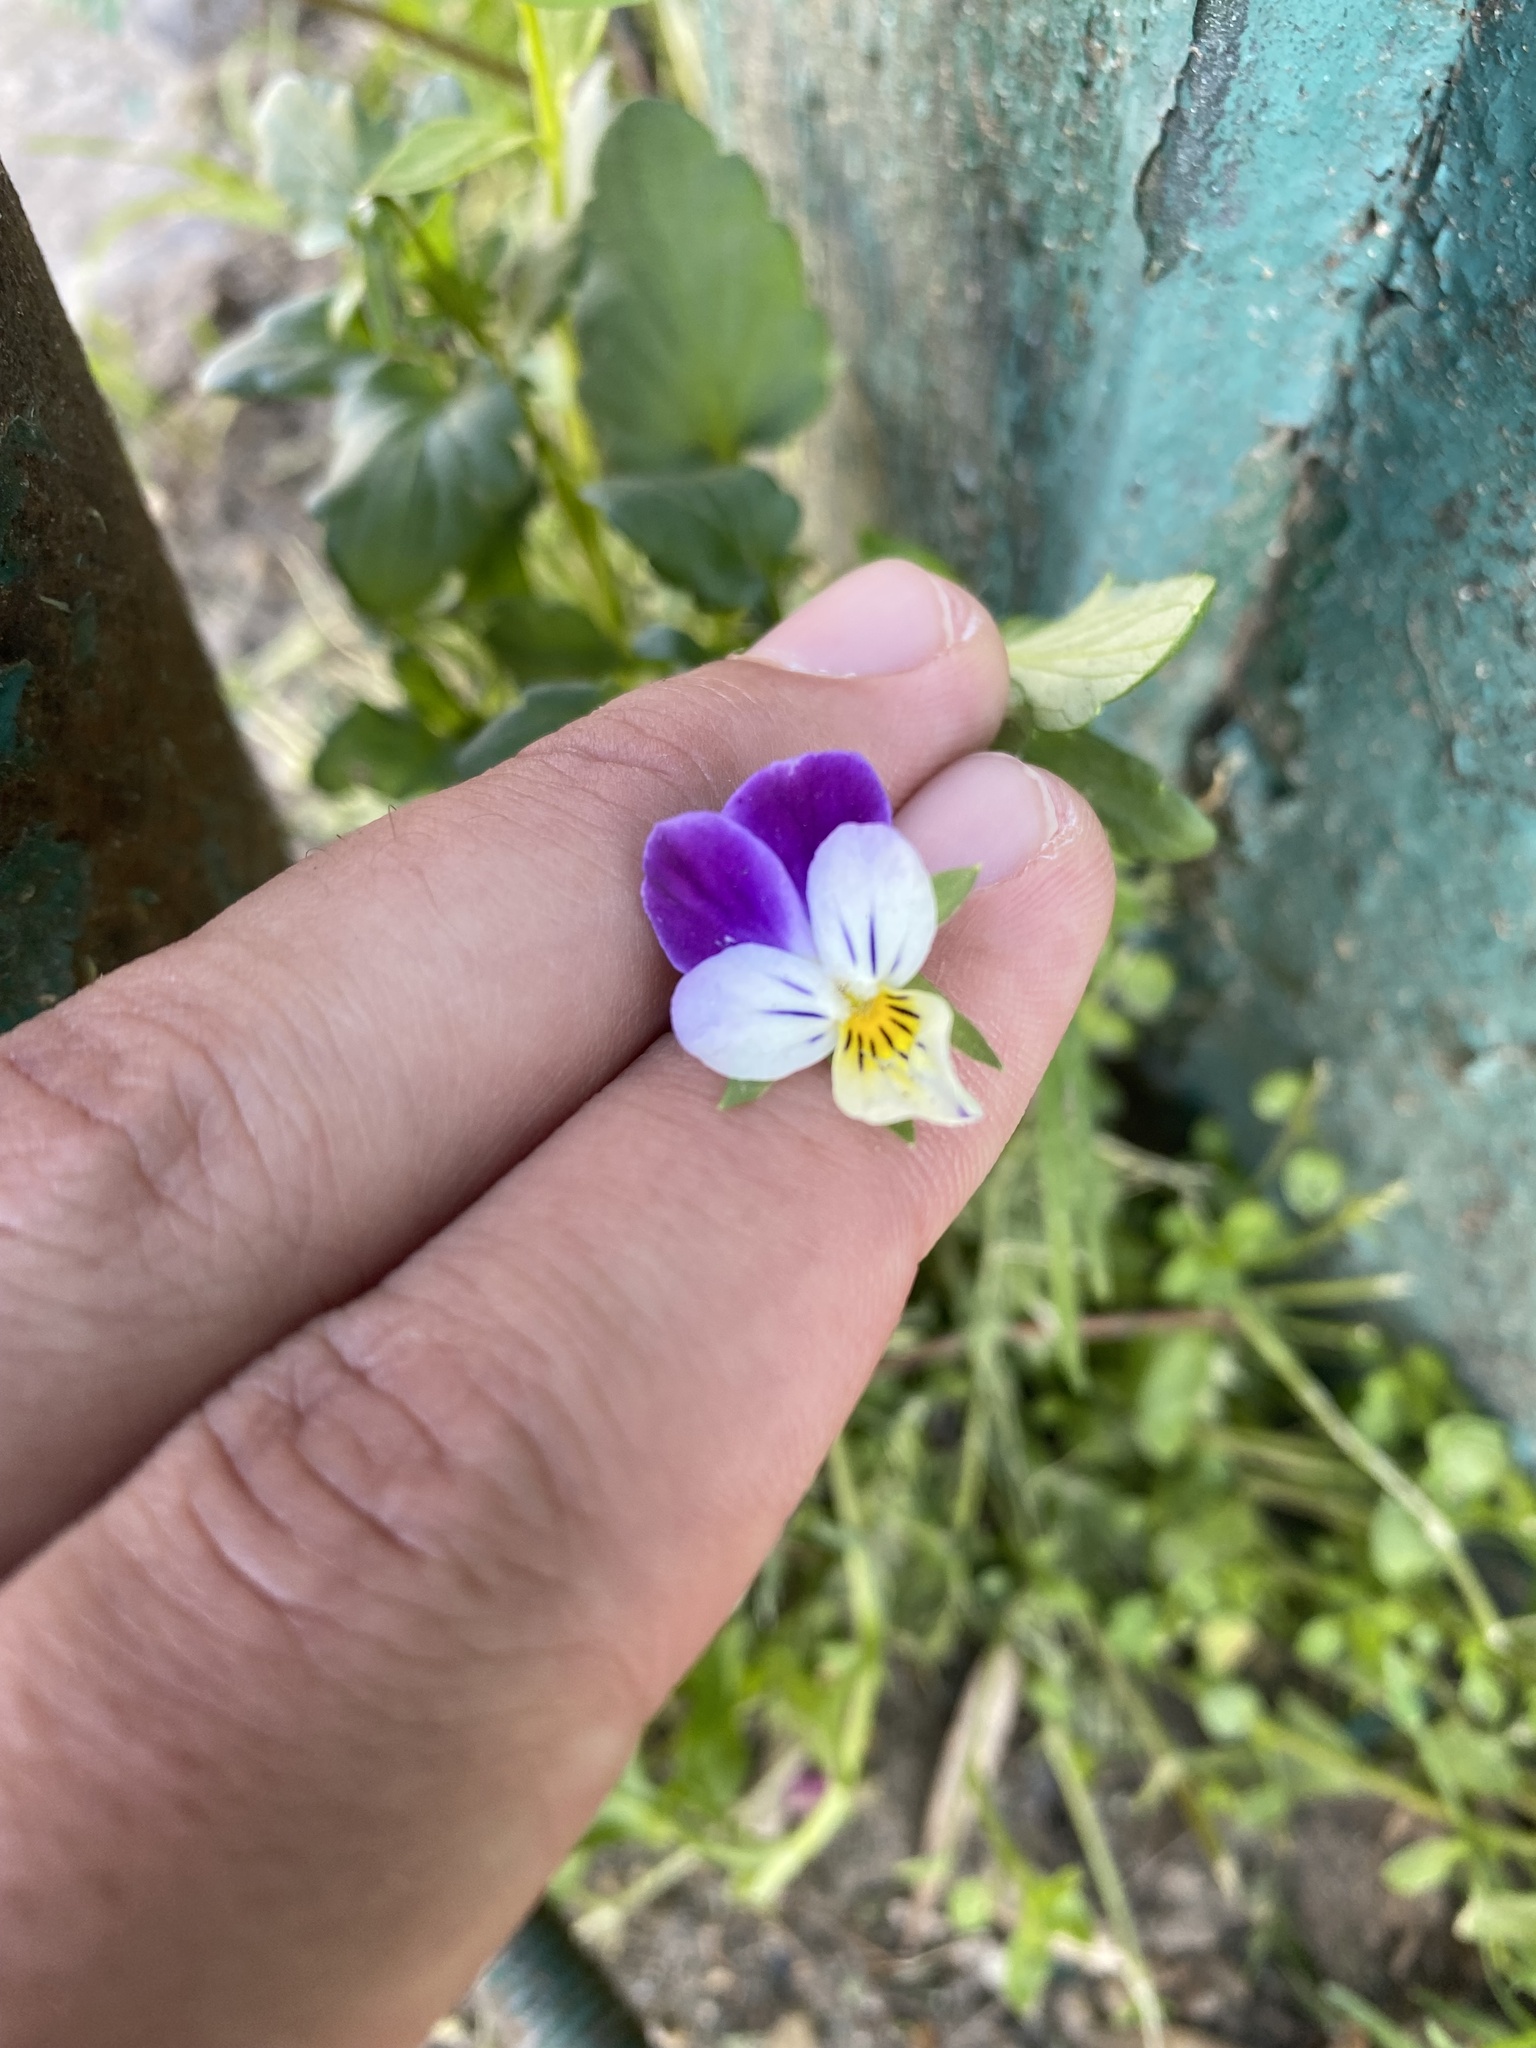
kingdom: Plantae
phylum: Tracheophyta
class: Magnoliopsida
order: Malpighiales
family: Violaceae
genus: Viola
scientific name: Viola wittrockiana
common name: Garden pansy
